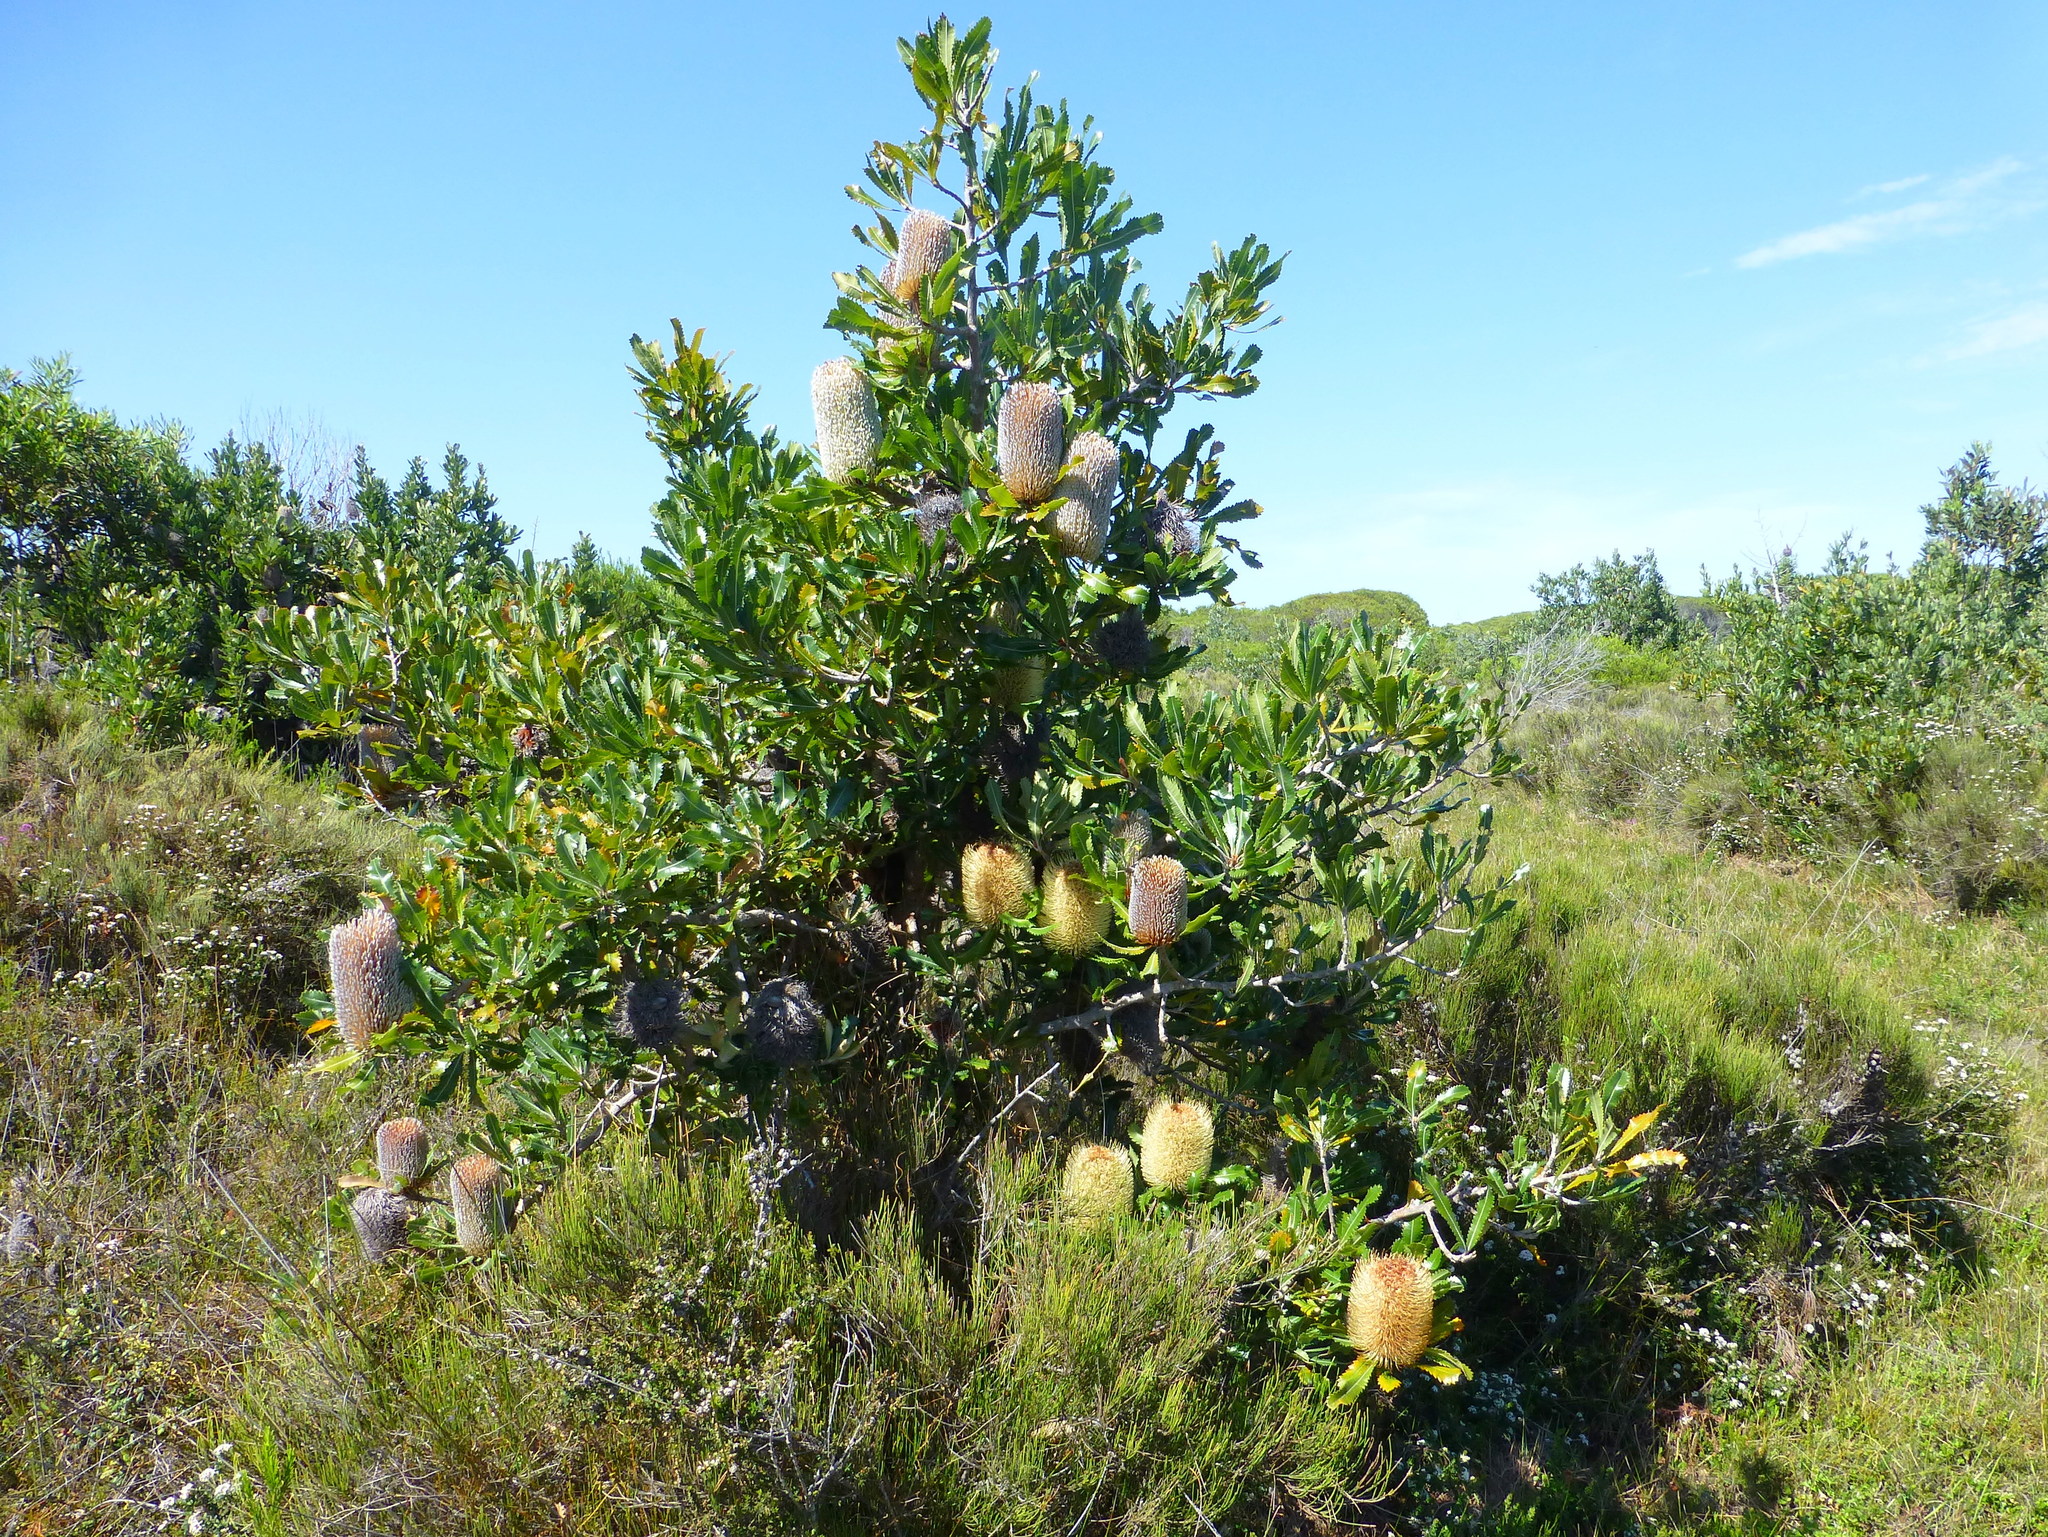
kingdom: Plantae
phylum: Tracheophyta
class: Magnoliopsida
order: Proteales
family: Proteaceae
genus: Banksia
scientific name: Banksia serrata
